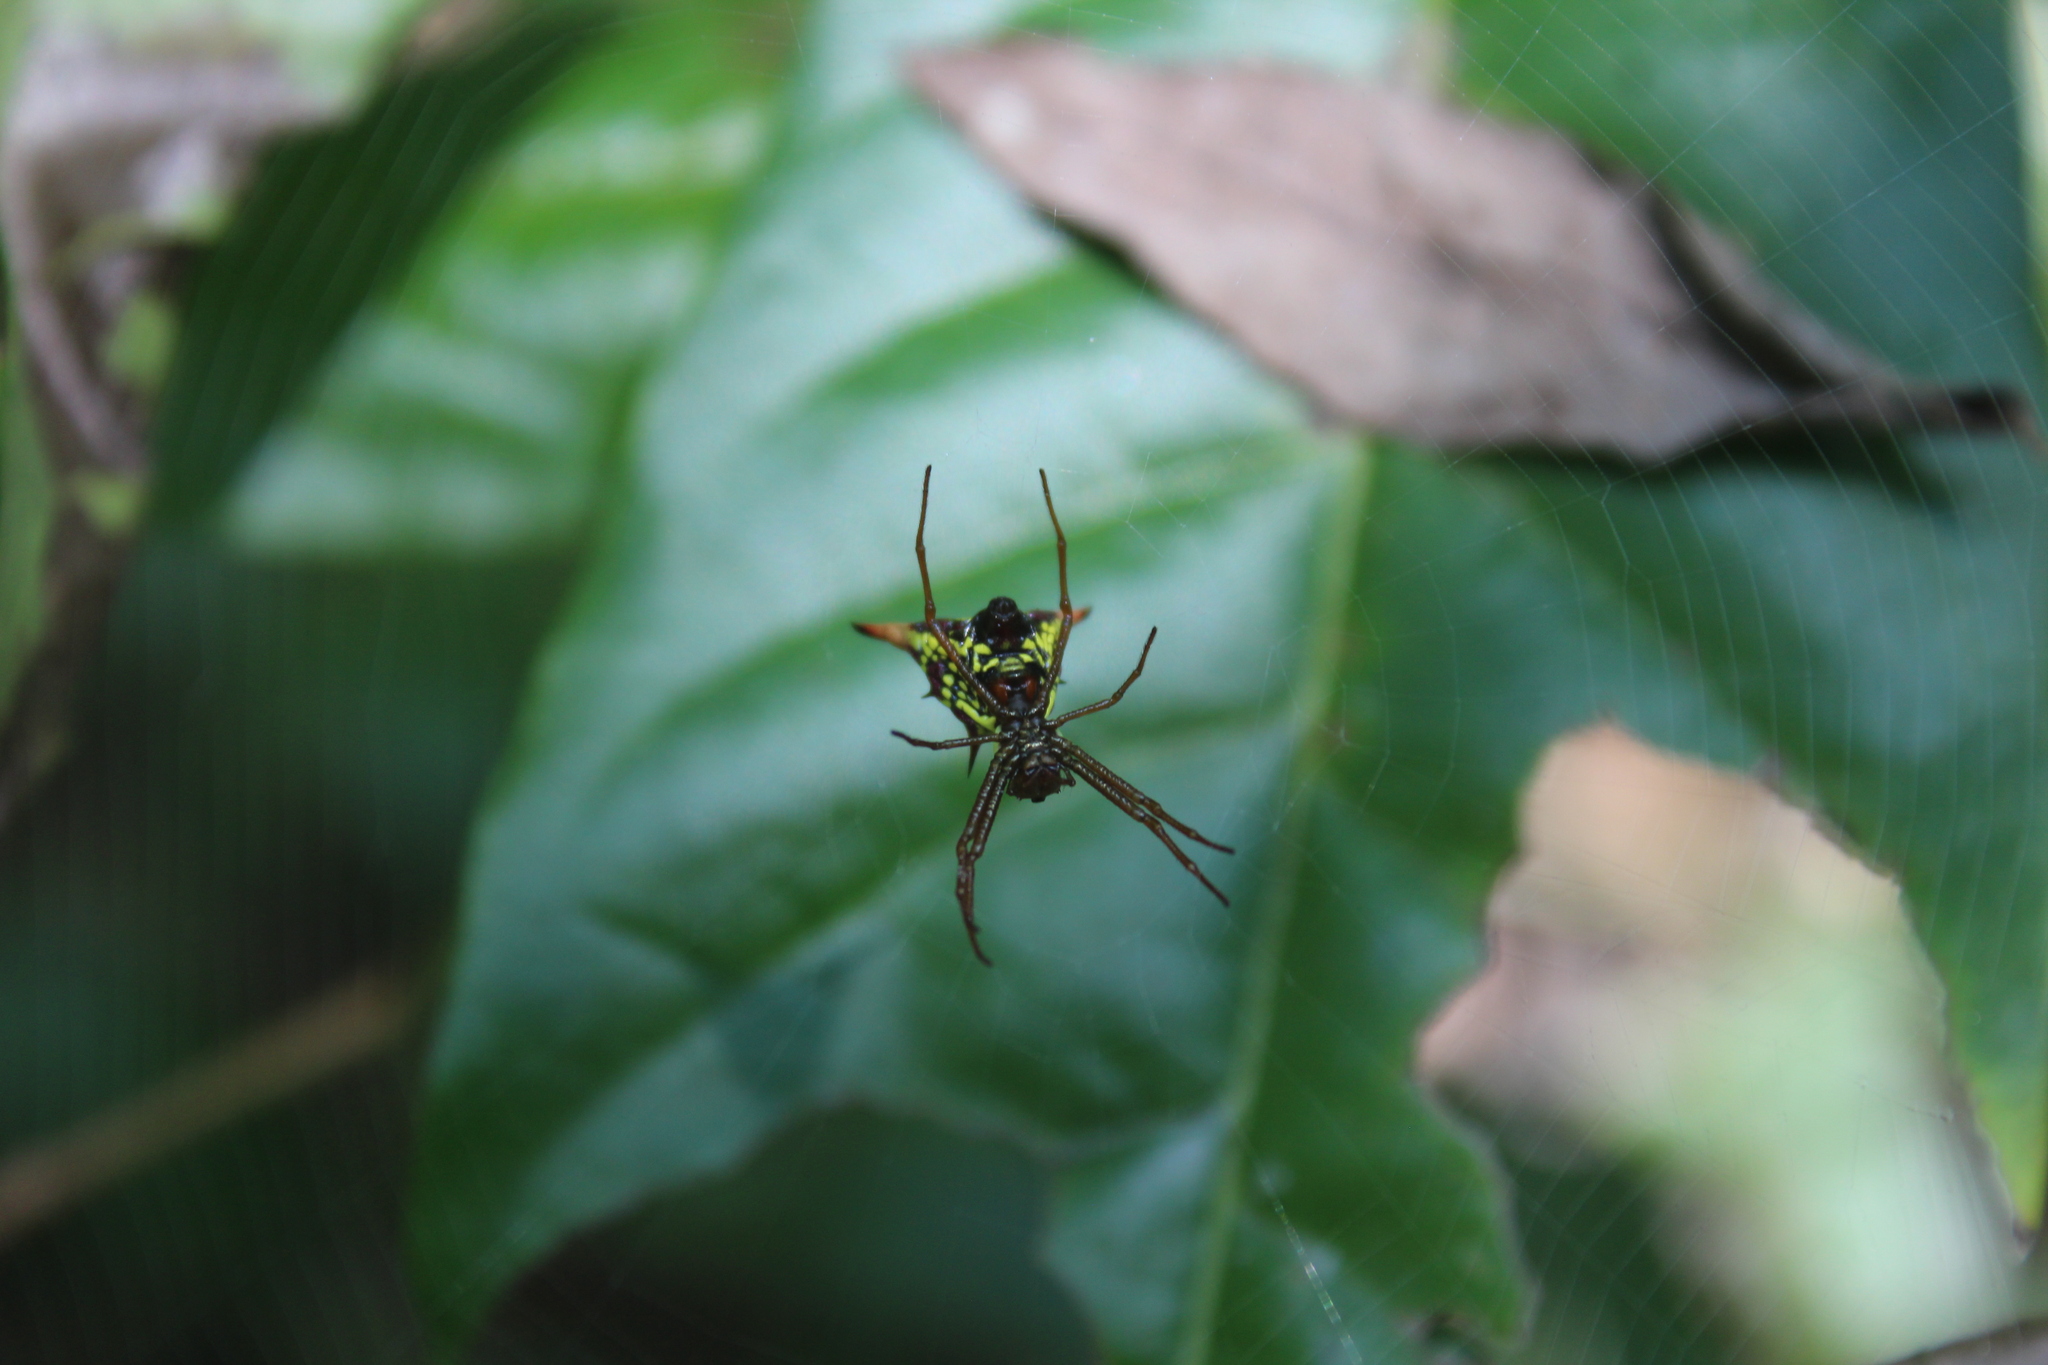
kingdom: Animalia
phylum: Arthropoda
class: Arachnida
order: Araneae
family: Araneidae
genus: Micrathena
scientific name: Micrathena sagittata
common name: Orb weavers
